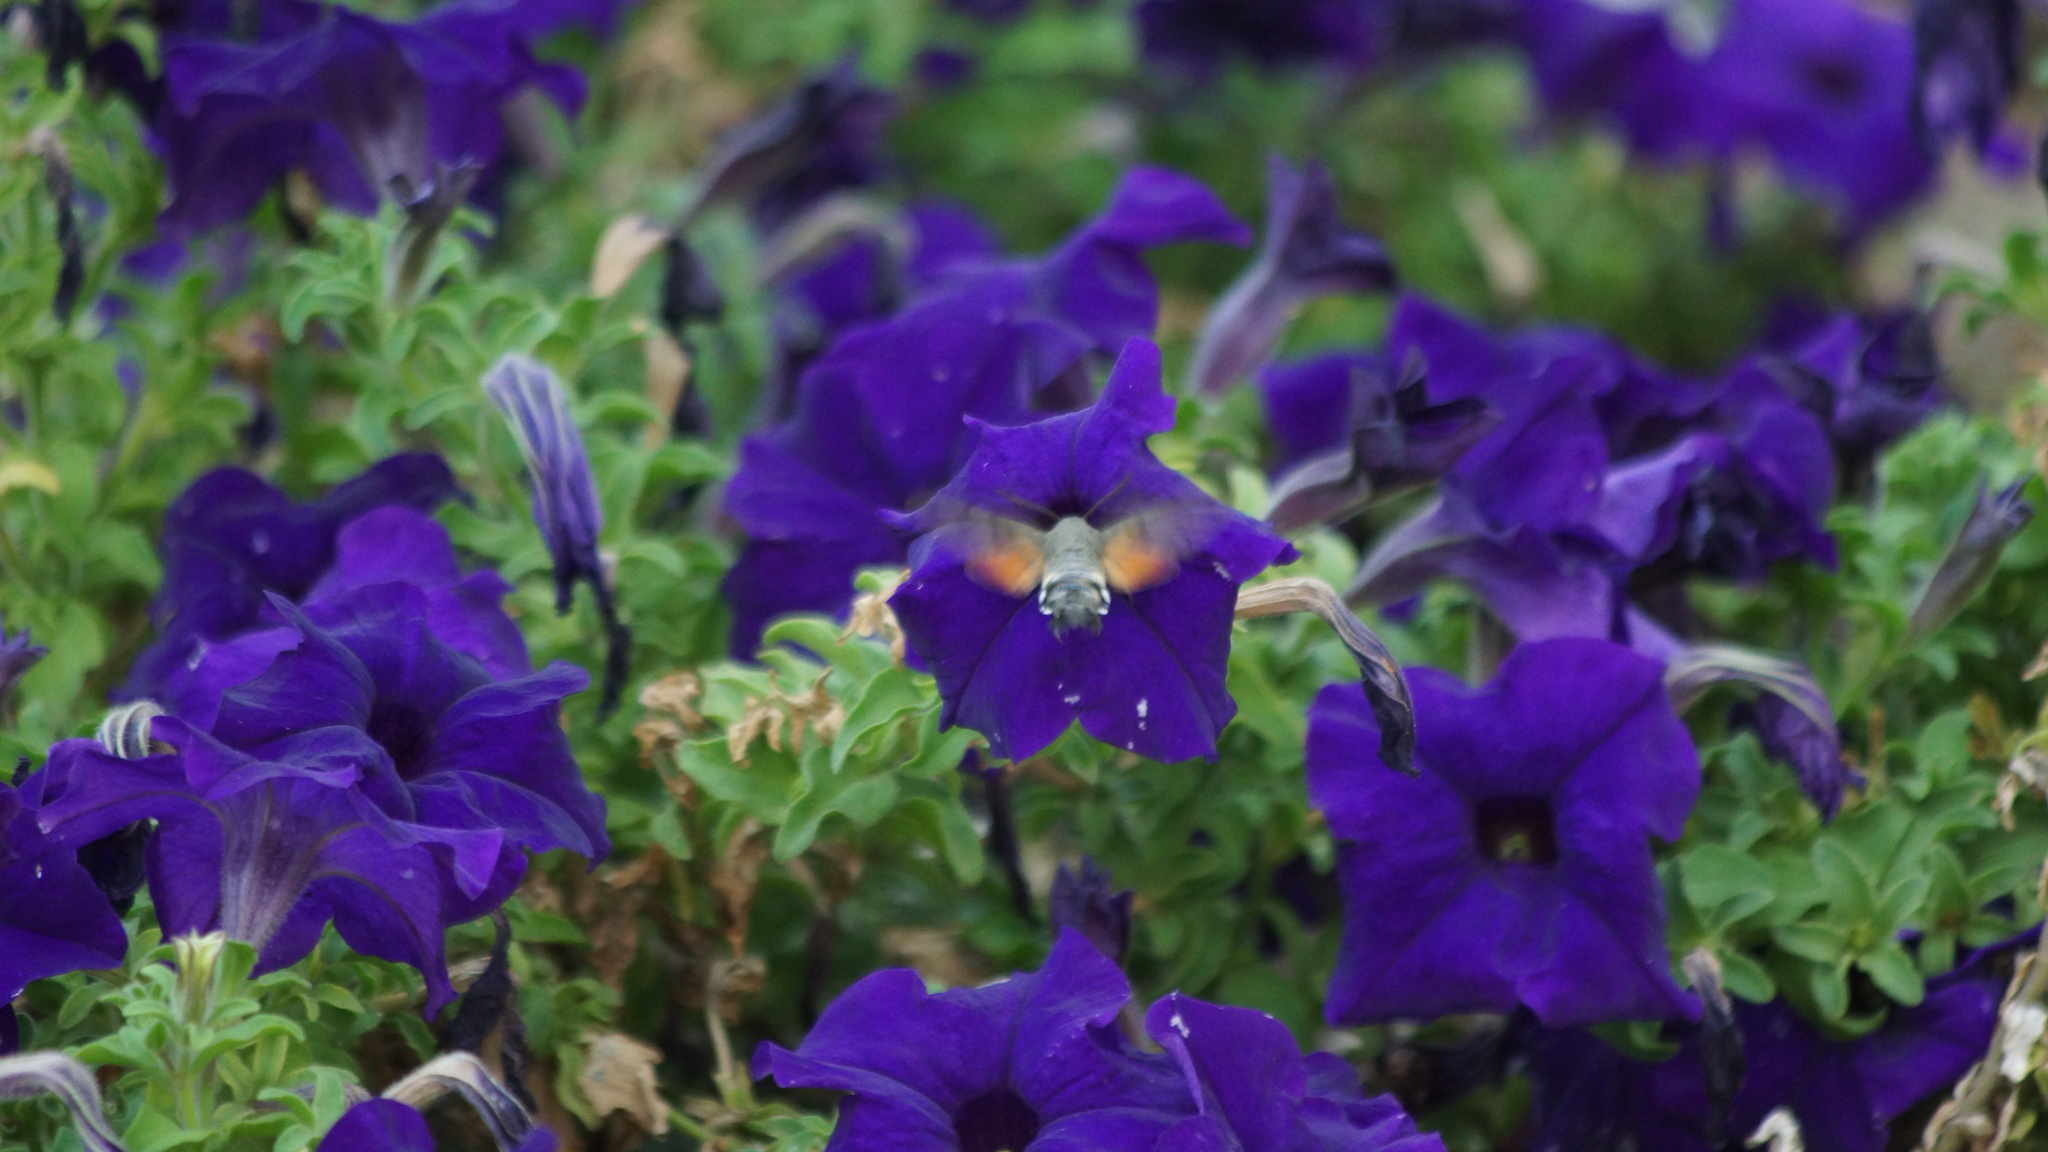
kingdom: Animalia
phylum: Arthropoda
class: Insecta
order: Lepidoptera
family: Sphingidae
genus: Macroglossum
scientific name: Macroglossum stellatarum
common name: Humming-bird hawk-moth
